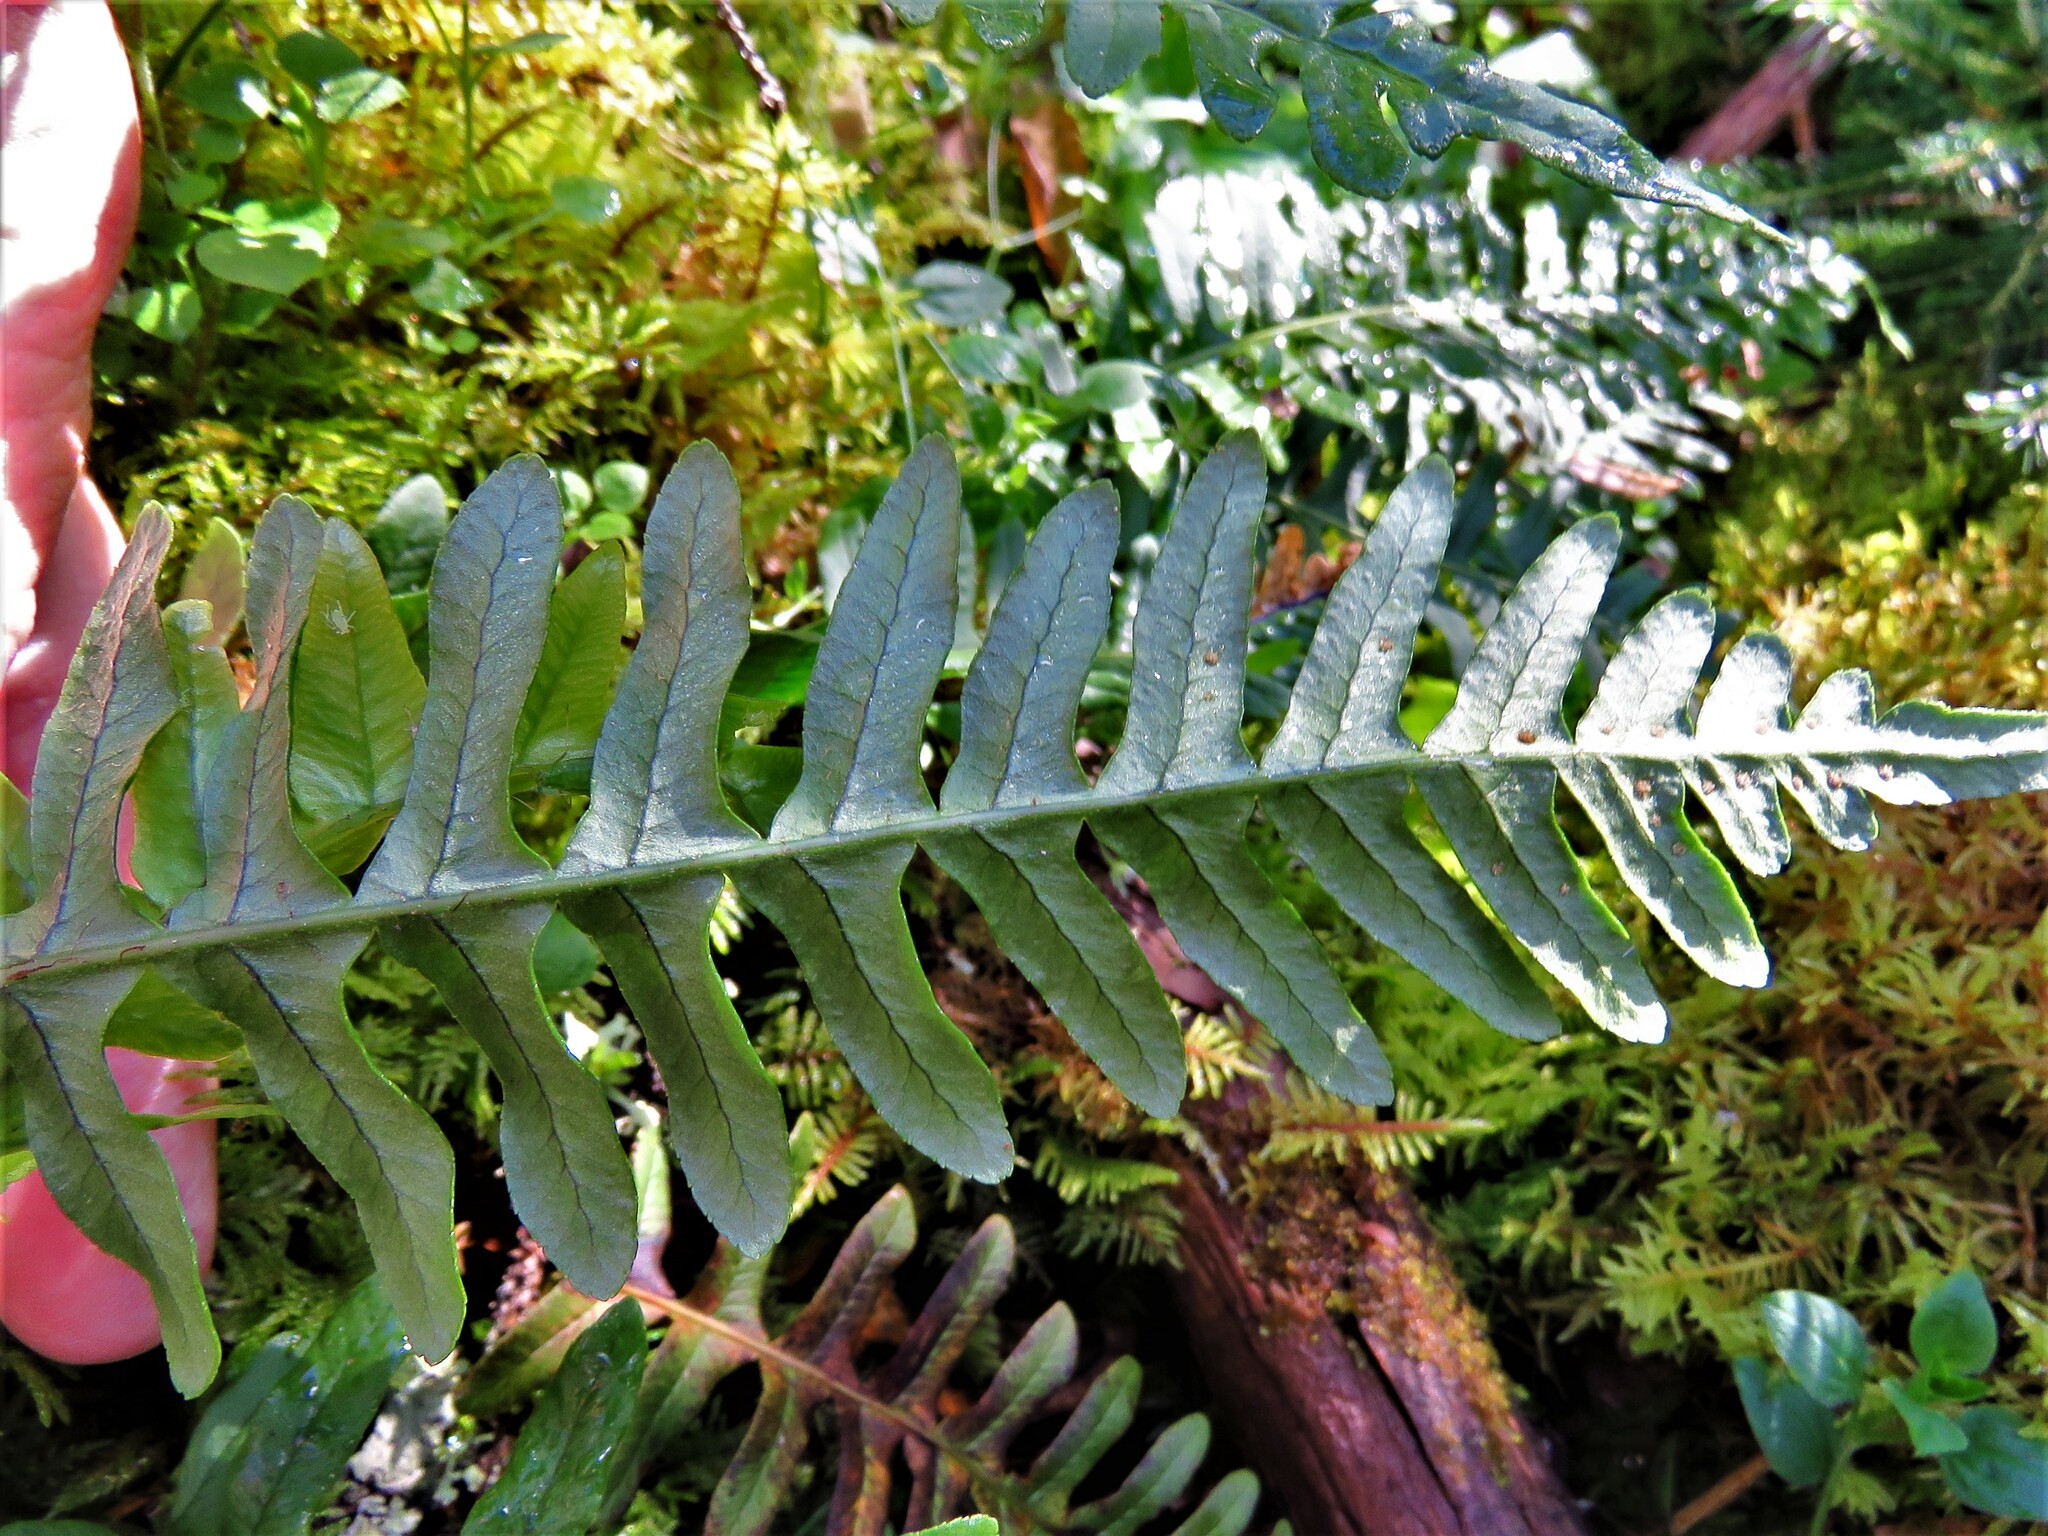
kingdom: Plantae
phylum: Tracheophyta
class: Polypodiopsida
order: Polypodiales
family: Polypodiaceae
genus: Polypodium
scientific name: Polypodium vulgare
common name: Common polypody
